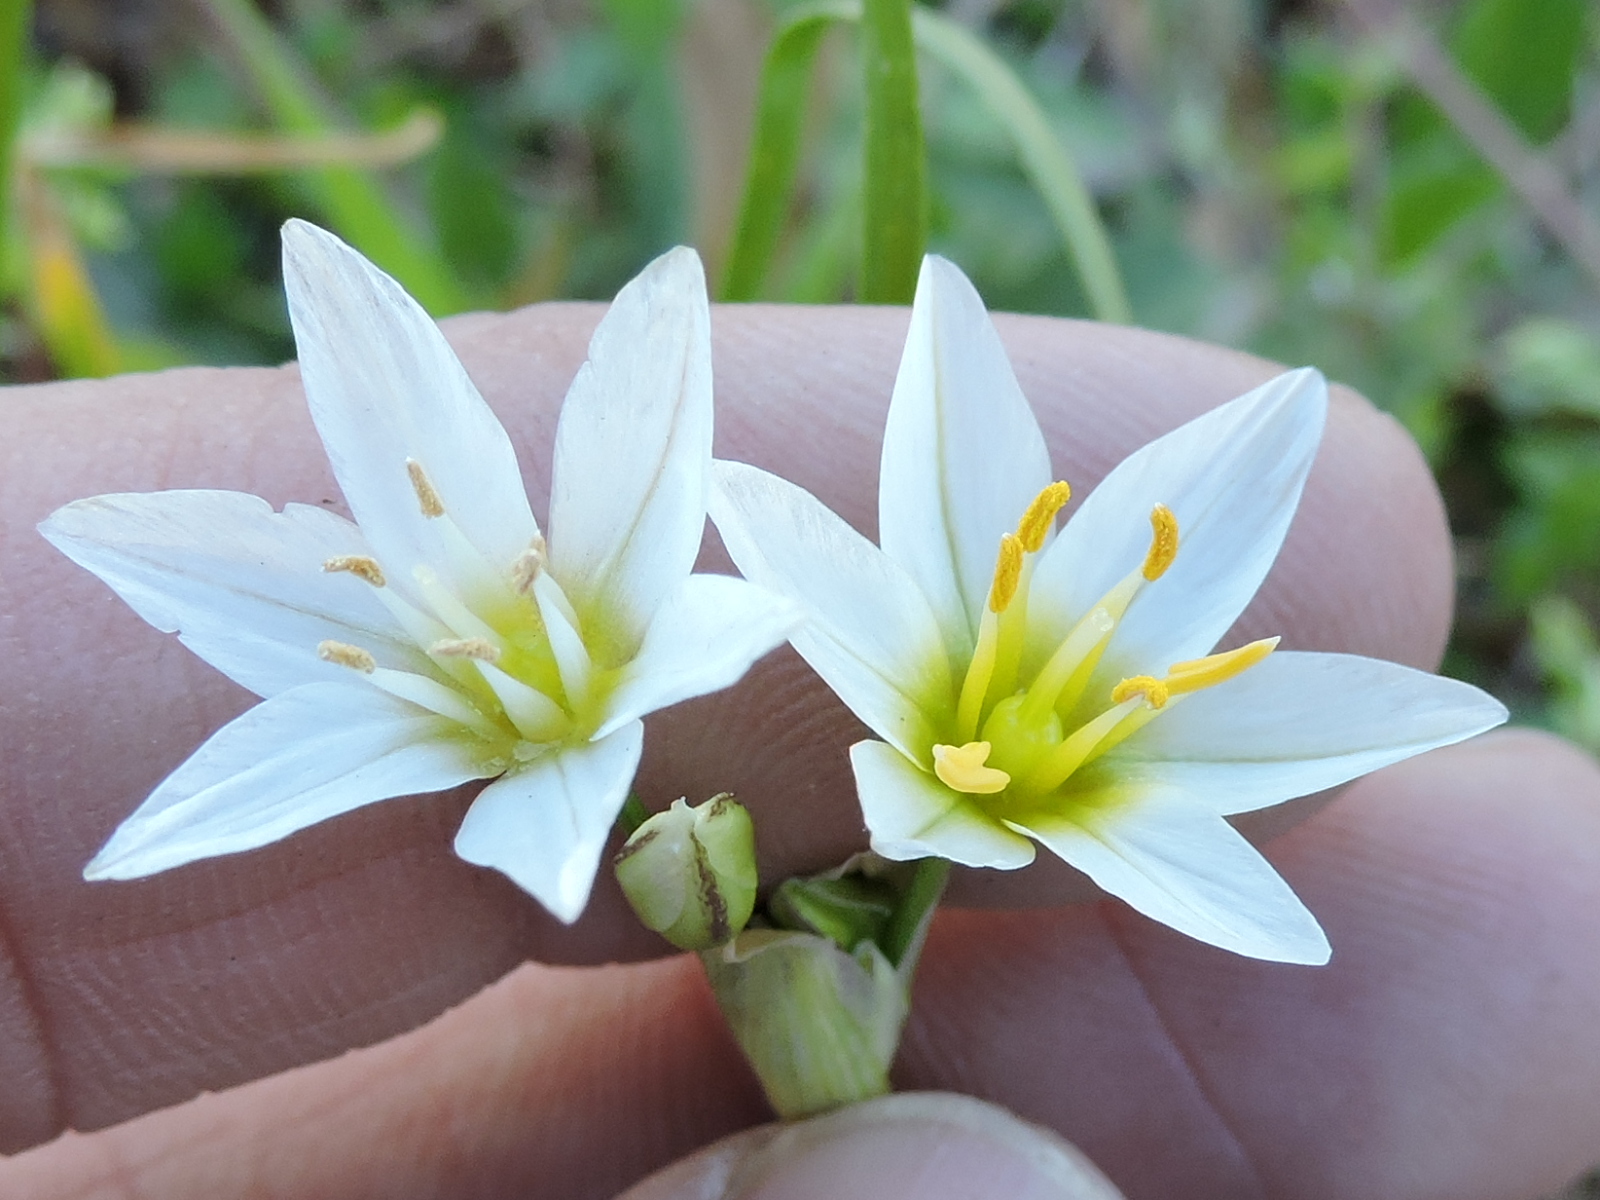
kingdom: Plantae
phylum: Tracheophyta
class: Liliopsida
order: Asparagales
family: Amaryllidaceae
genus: Nothoscordum
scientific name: Nothoscordum bivalve
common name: Crow-poison
